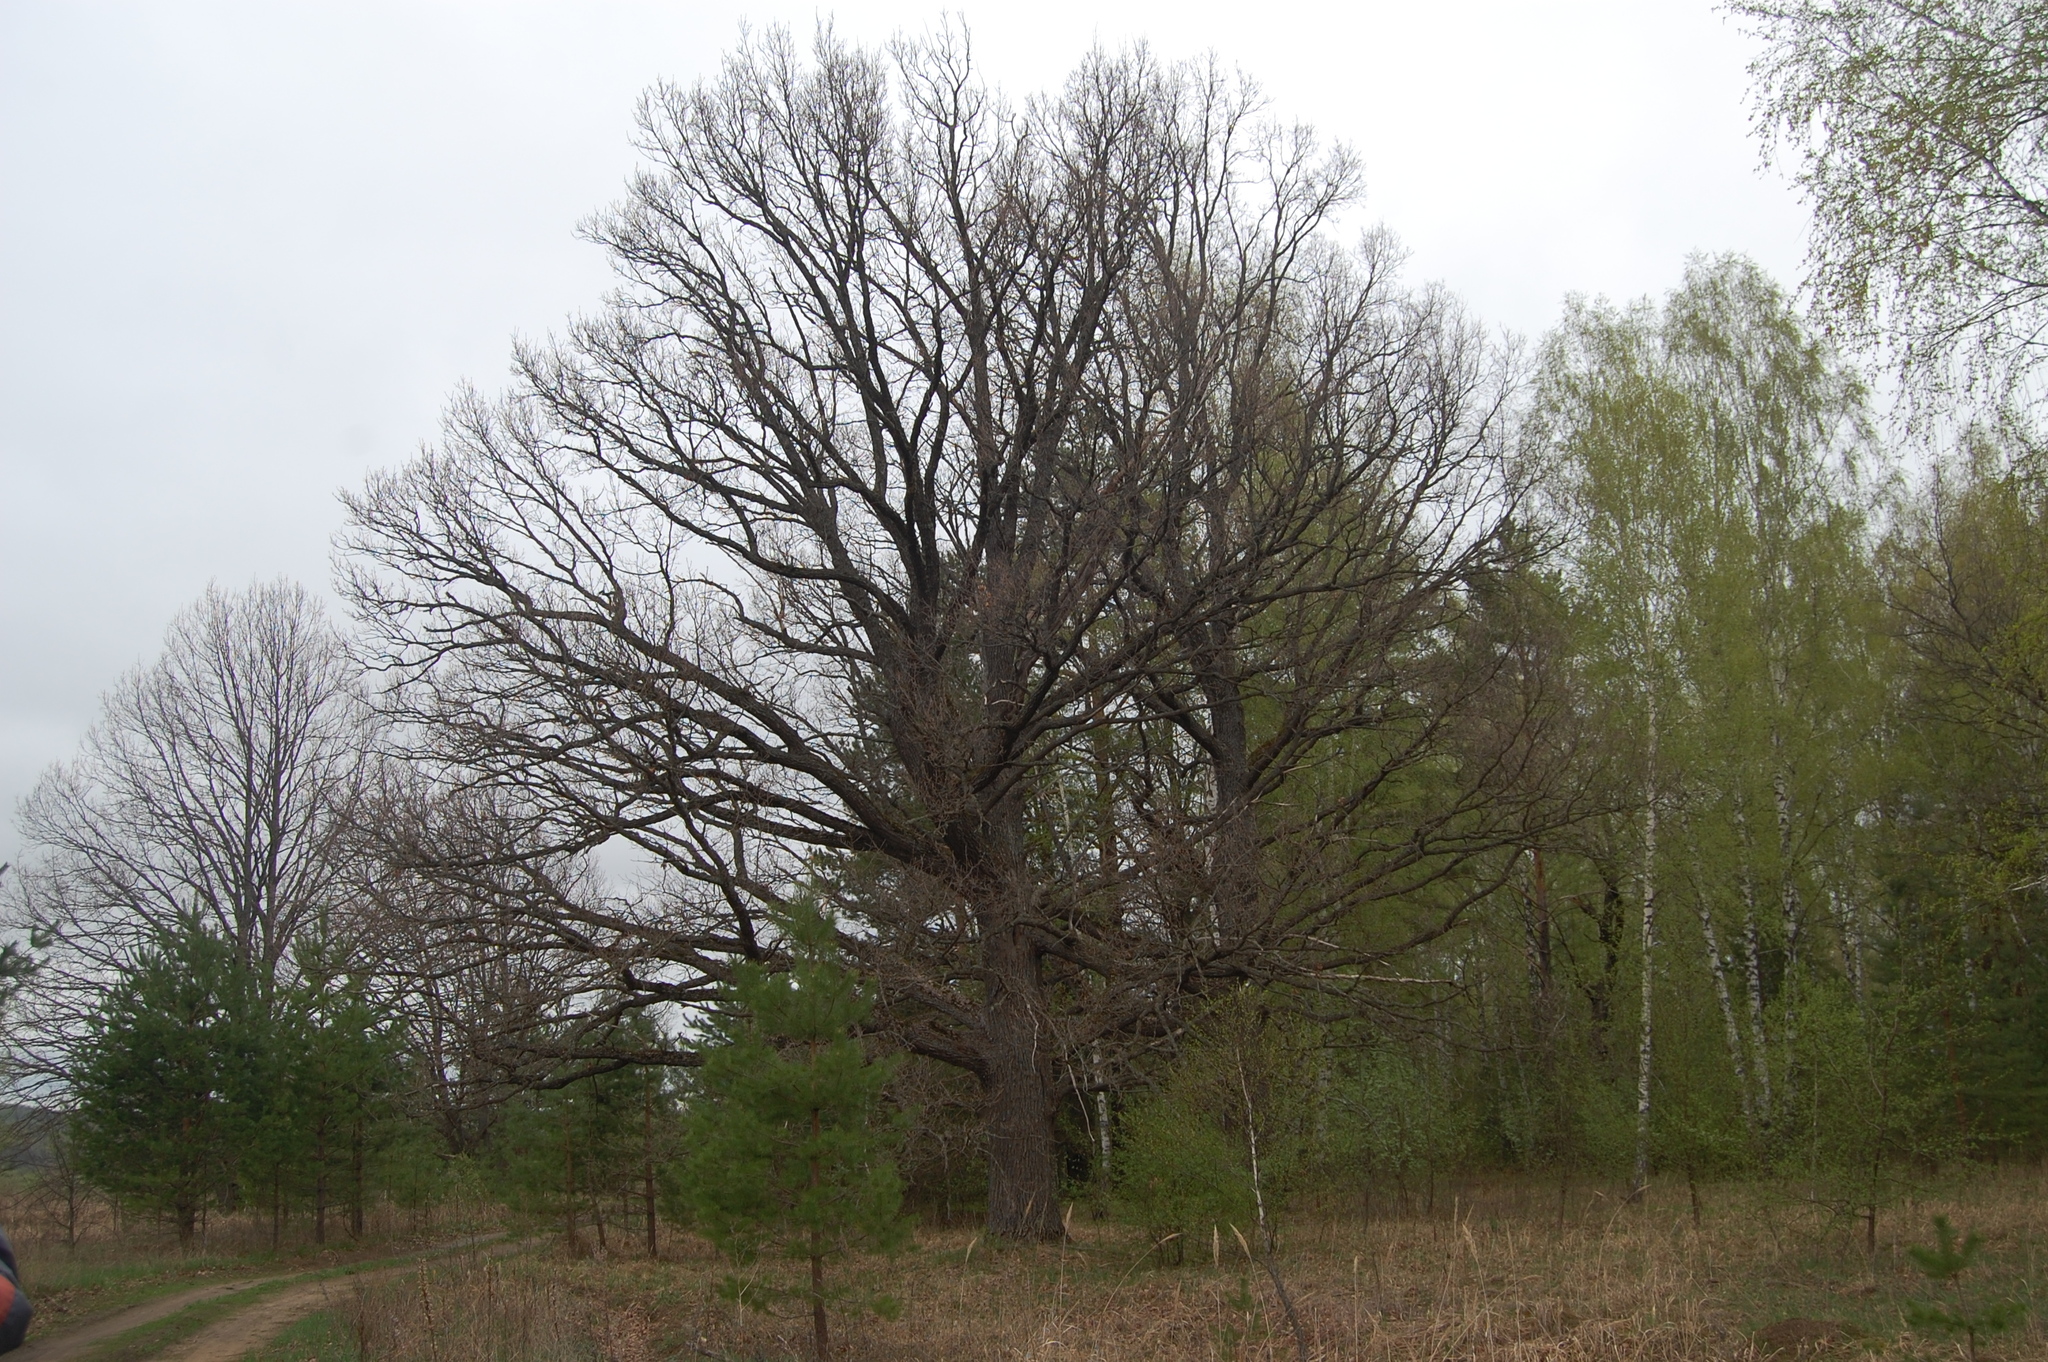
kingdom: Plantae
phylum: Tracheophyta
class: Magnoliopsida
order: Fagales
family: Fagaceae
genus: Quercus
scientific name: Quercus robur
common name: Pedunculate oak
